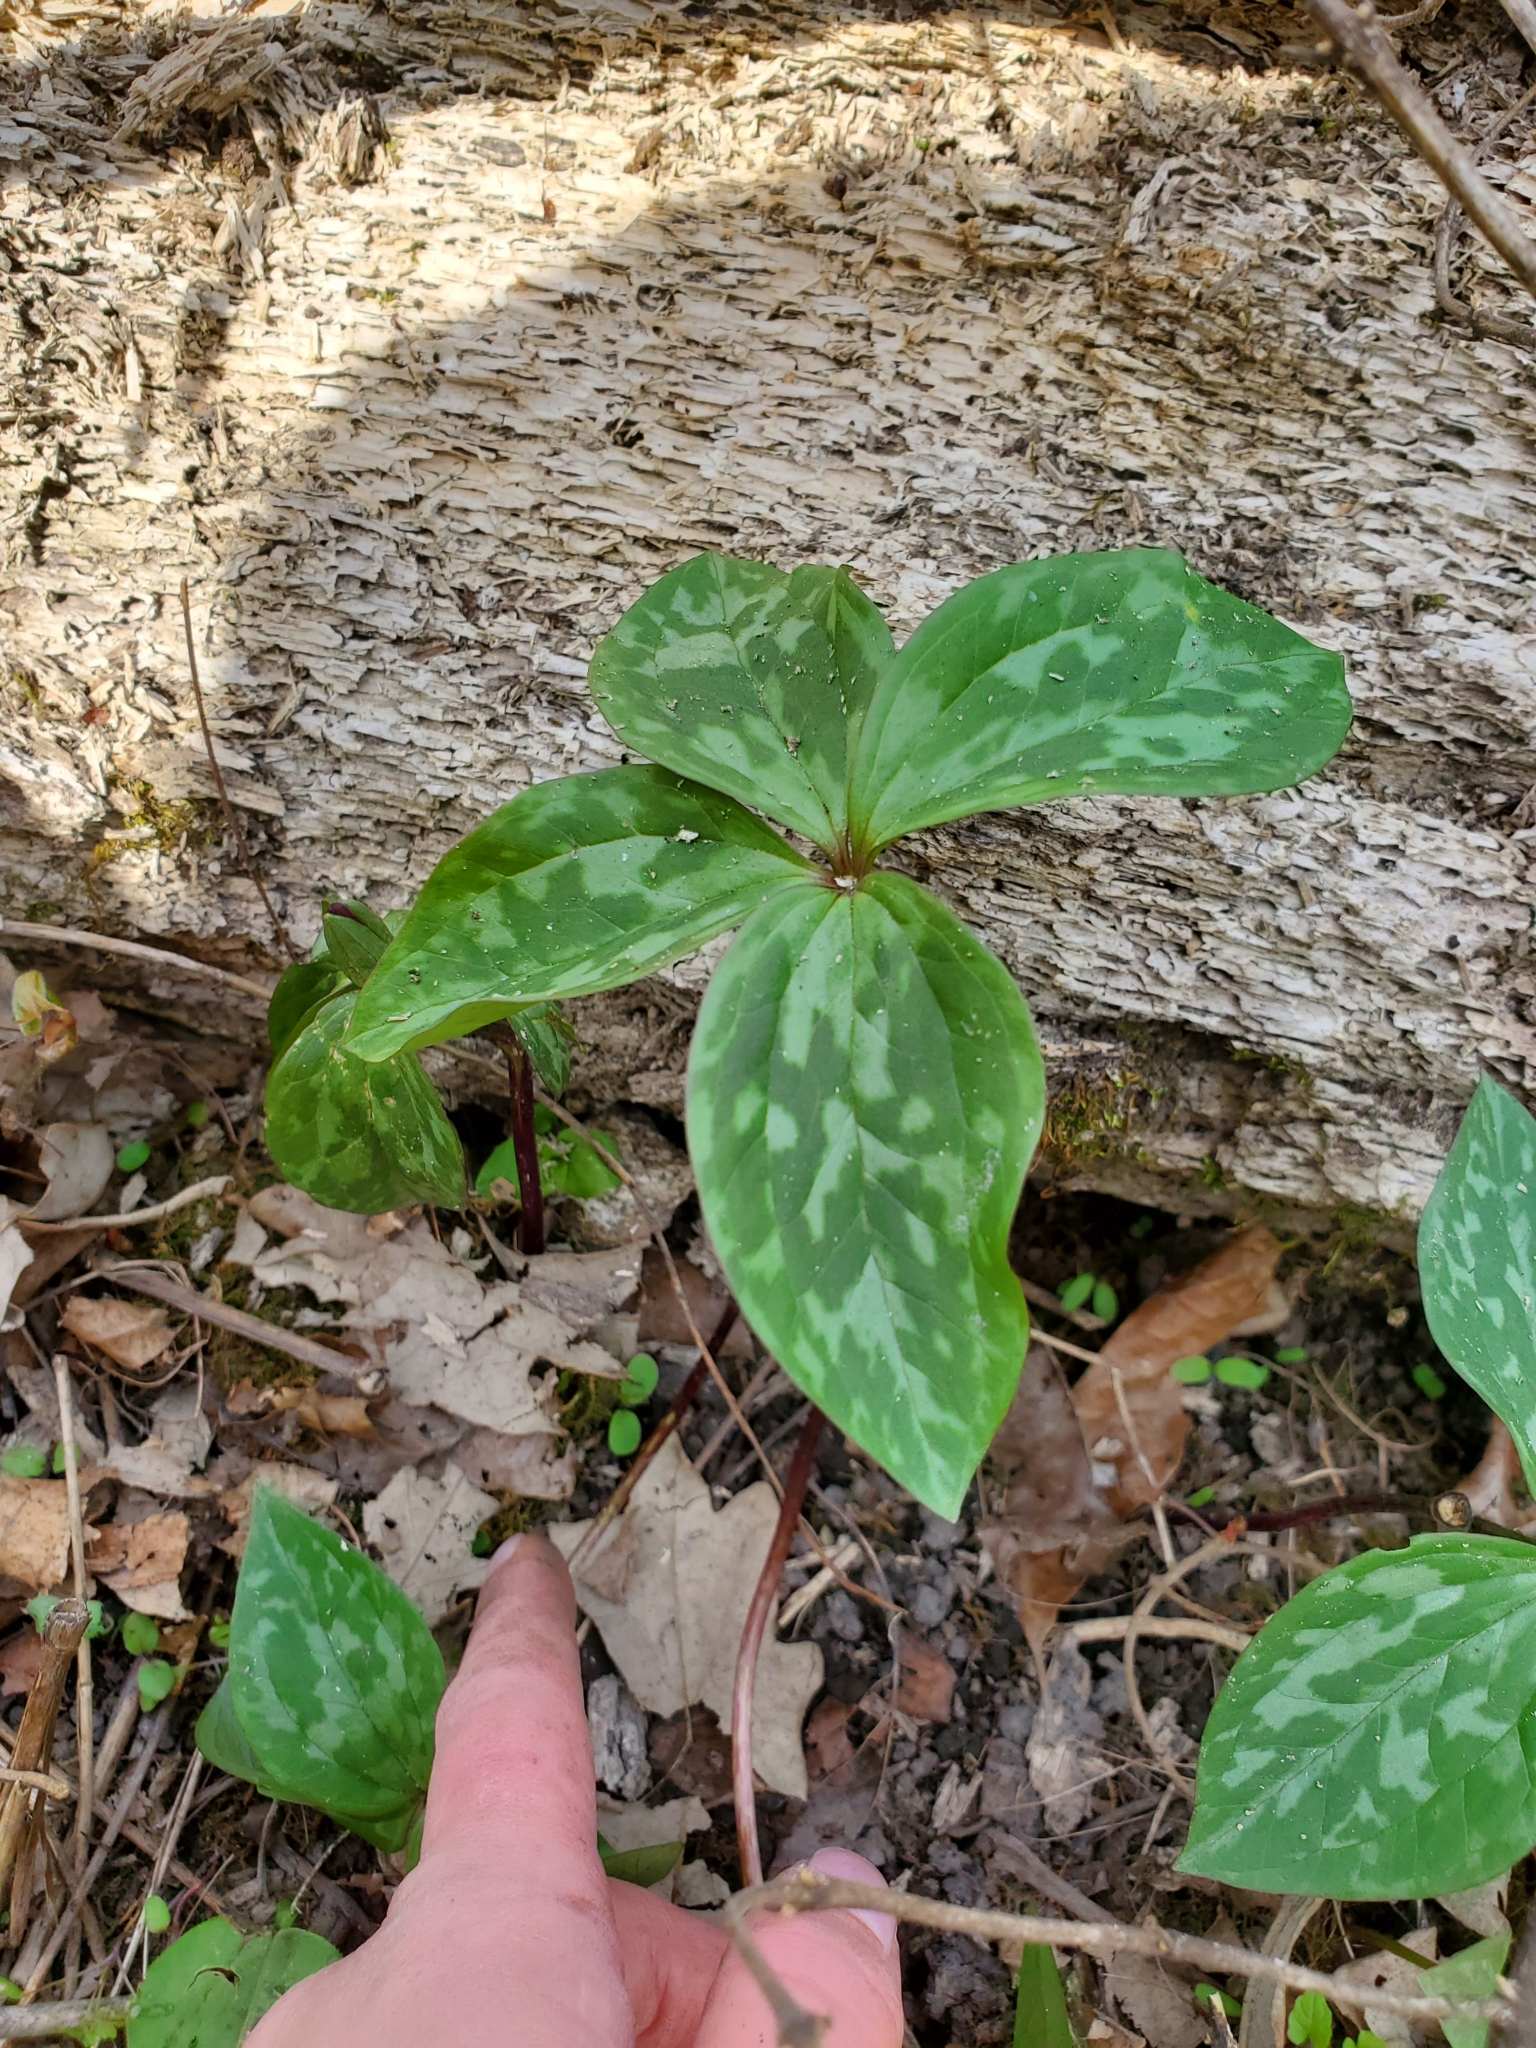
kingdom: Plantae
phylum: Tracheophyta
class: Liliopsida
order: Liliales
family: Melanthiaceae
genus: Trillium
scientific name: Trillium recurvatum
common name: Bloody butcher
